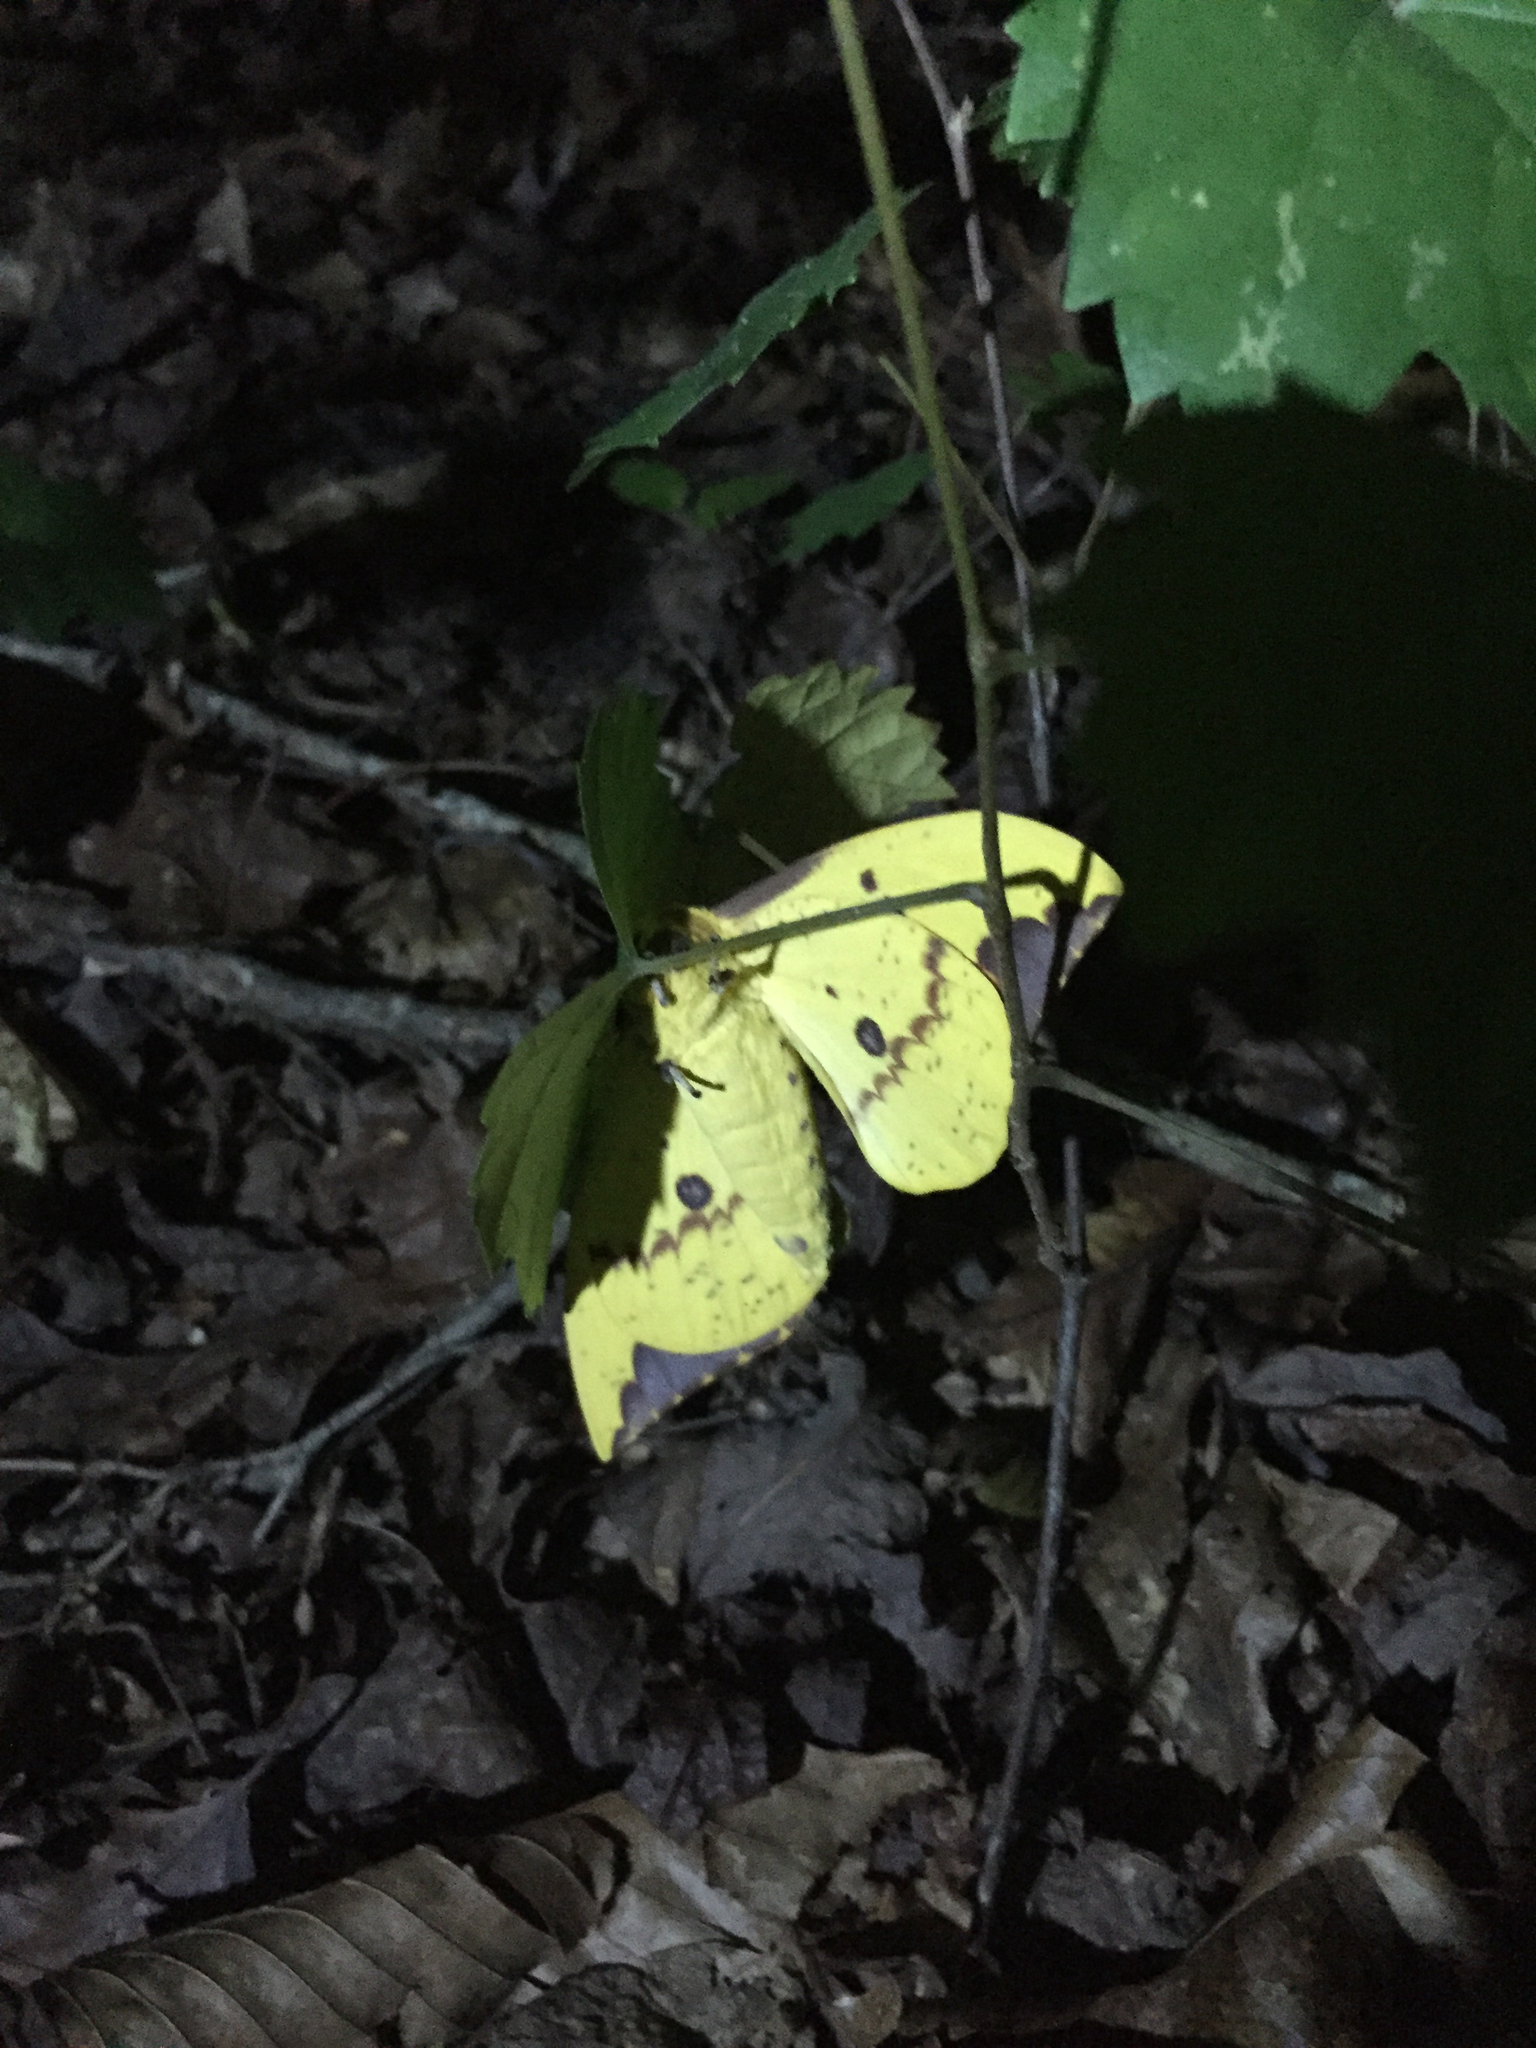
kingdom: Animalia
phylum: Arthropoda
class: Insecta
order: Lepidoptera
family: Saturniidae
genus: Eacles
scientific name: Eacles imperialis
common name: Imperial moth
